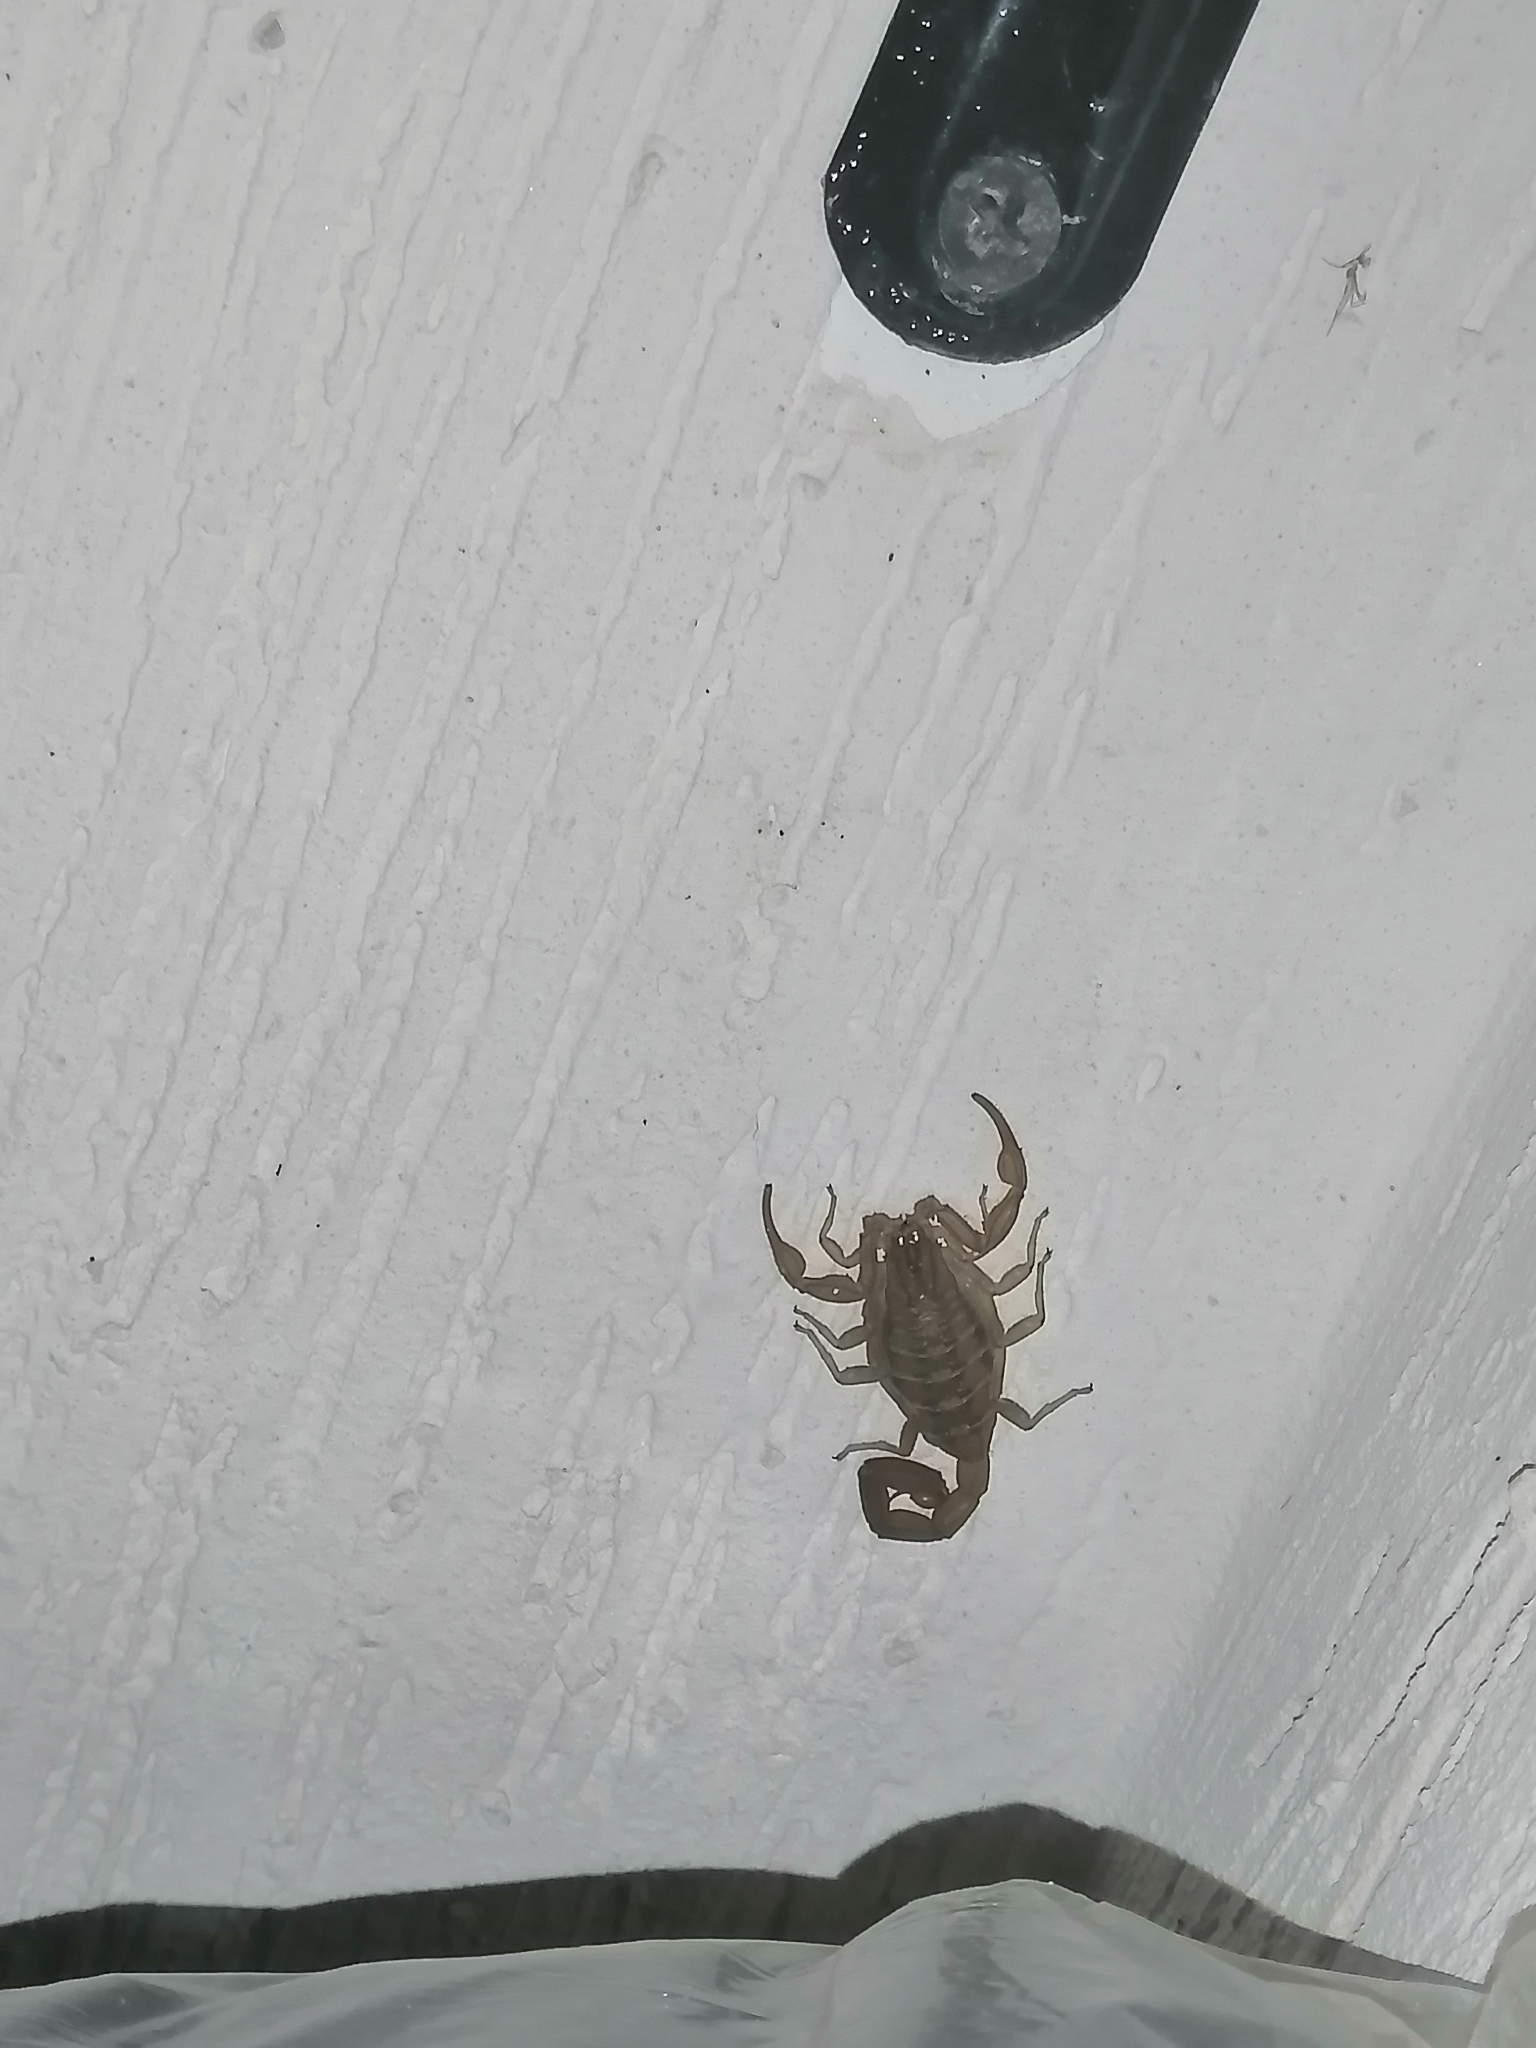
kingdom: Animalia
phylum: Arthropoda
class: Arachnida
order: Scorpiones
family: Buthidae
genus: Centruroides
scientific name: Centruroides limpidus
